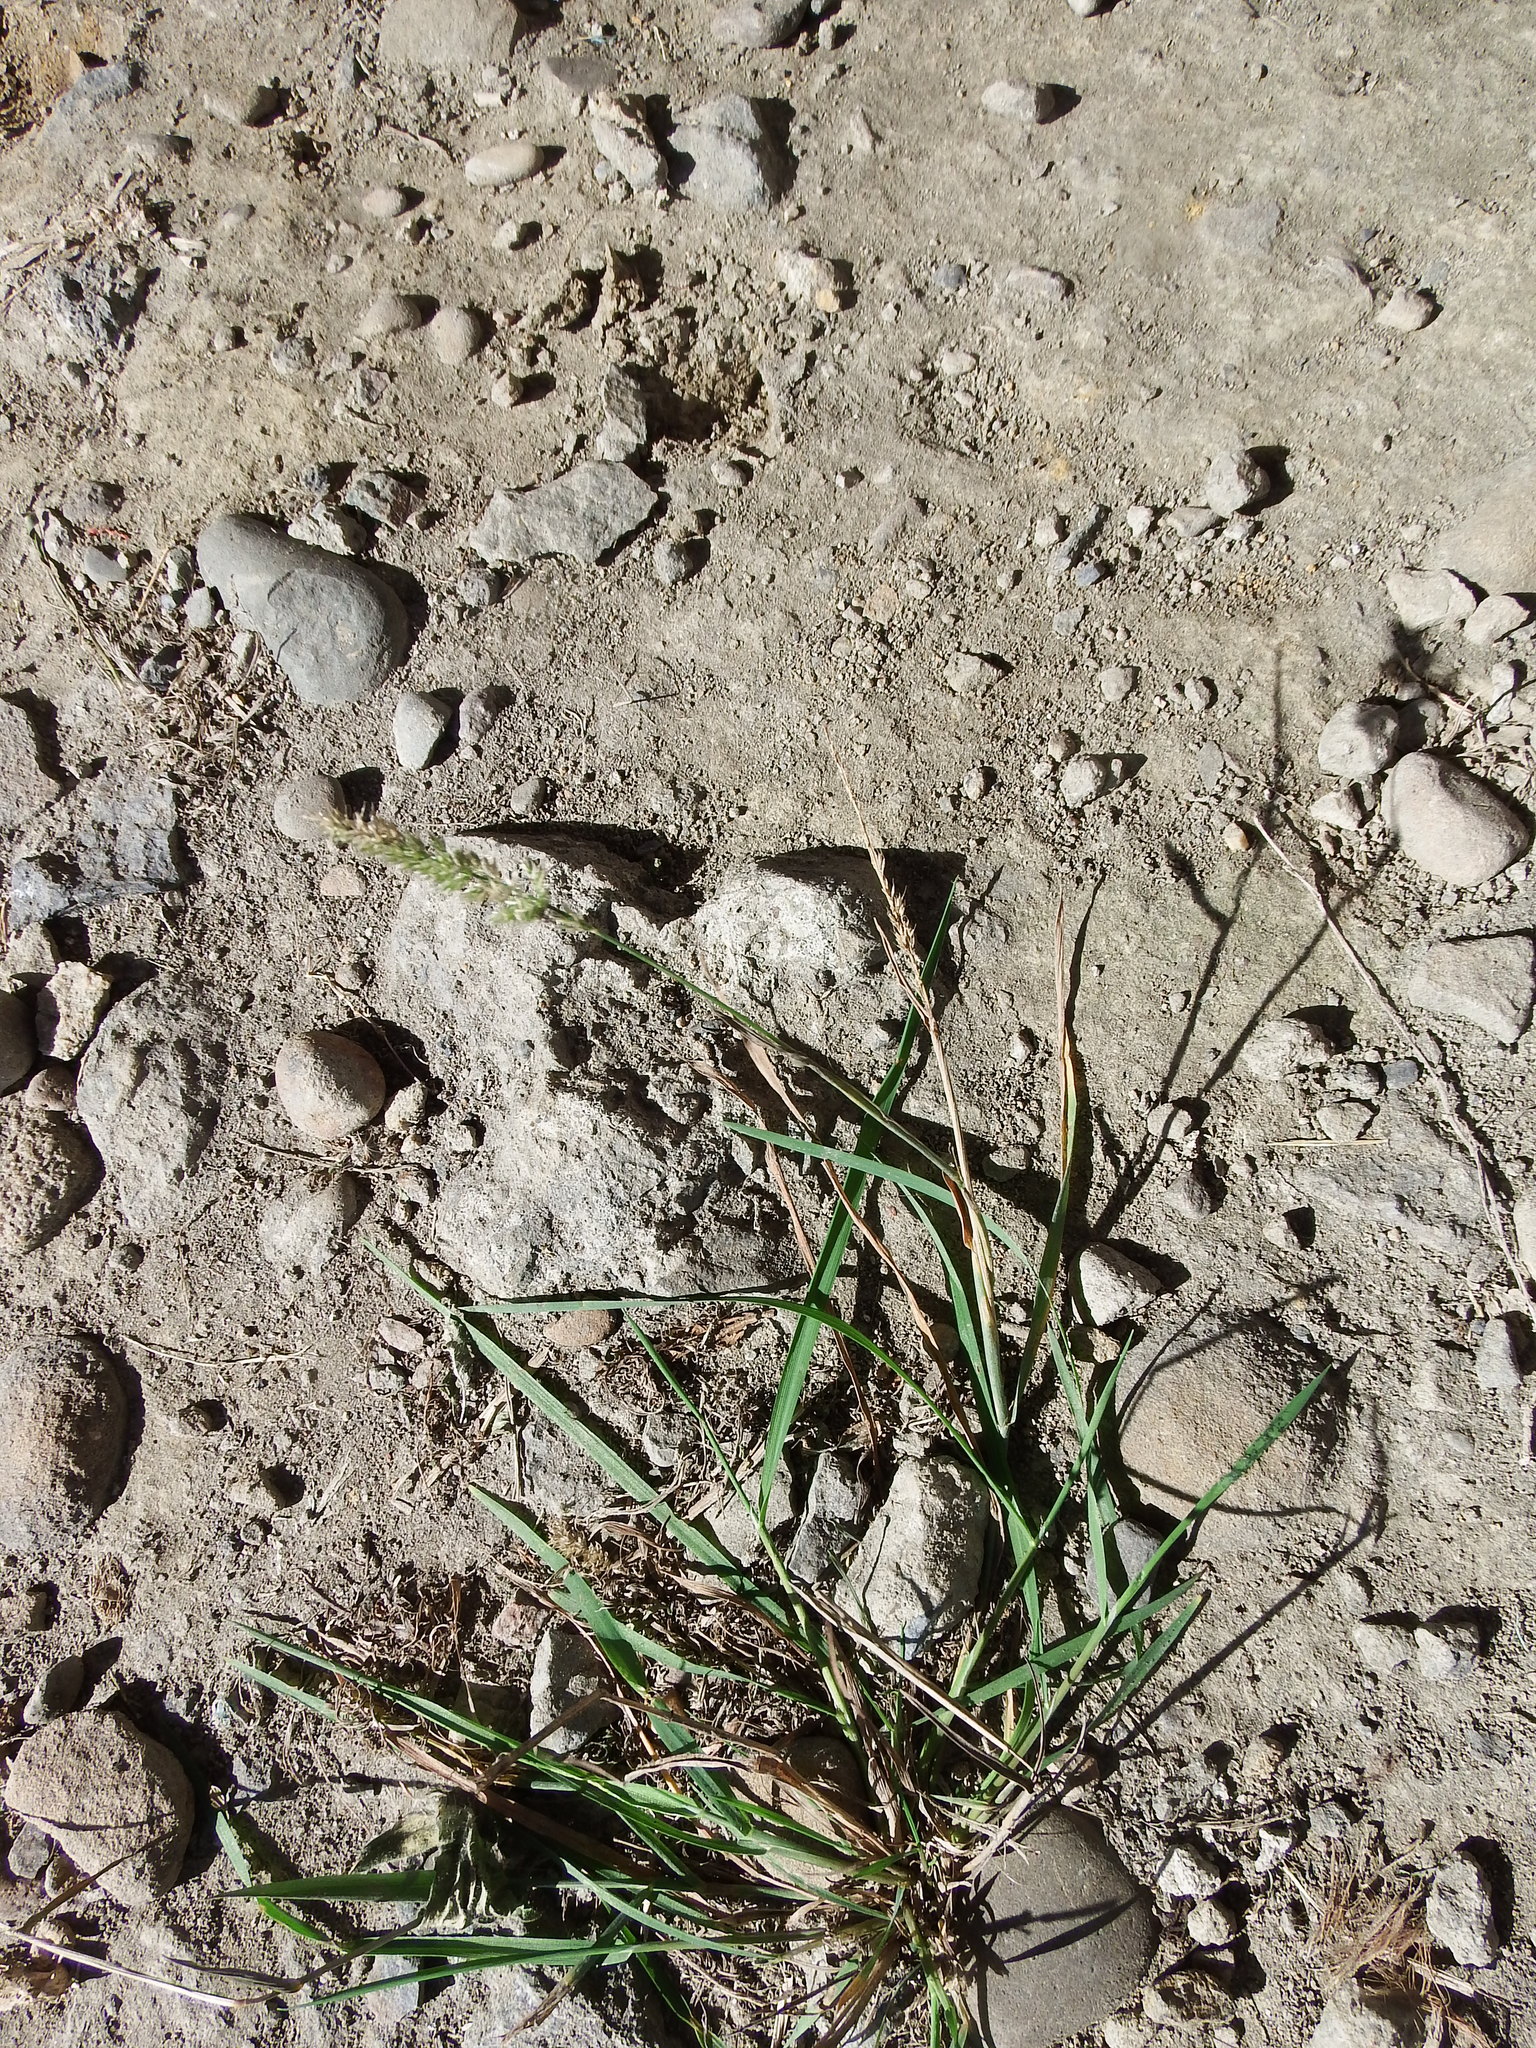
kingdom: Plantae
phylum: Tracheophyta
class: Liliopsida
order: Poales
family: Poaceae
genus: Polypogon
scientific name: Polypogon fugax
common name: Asia minor bluegrass
